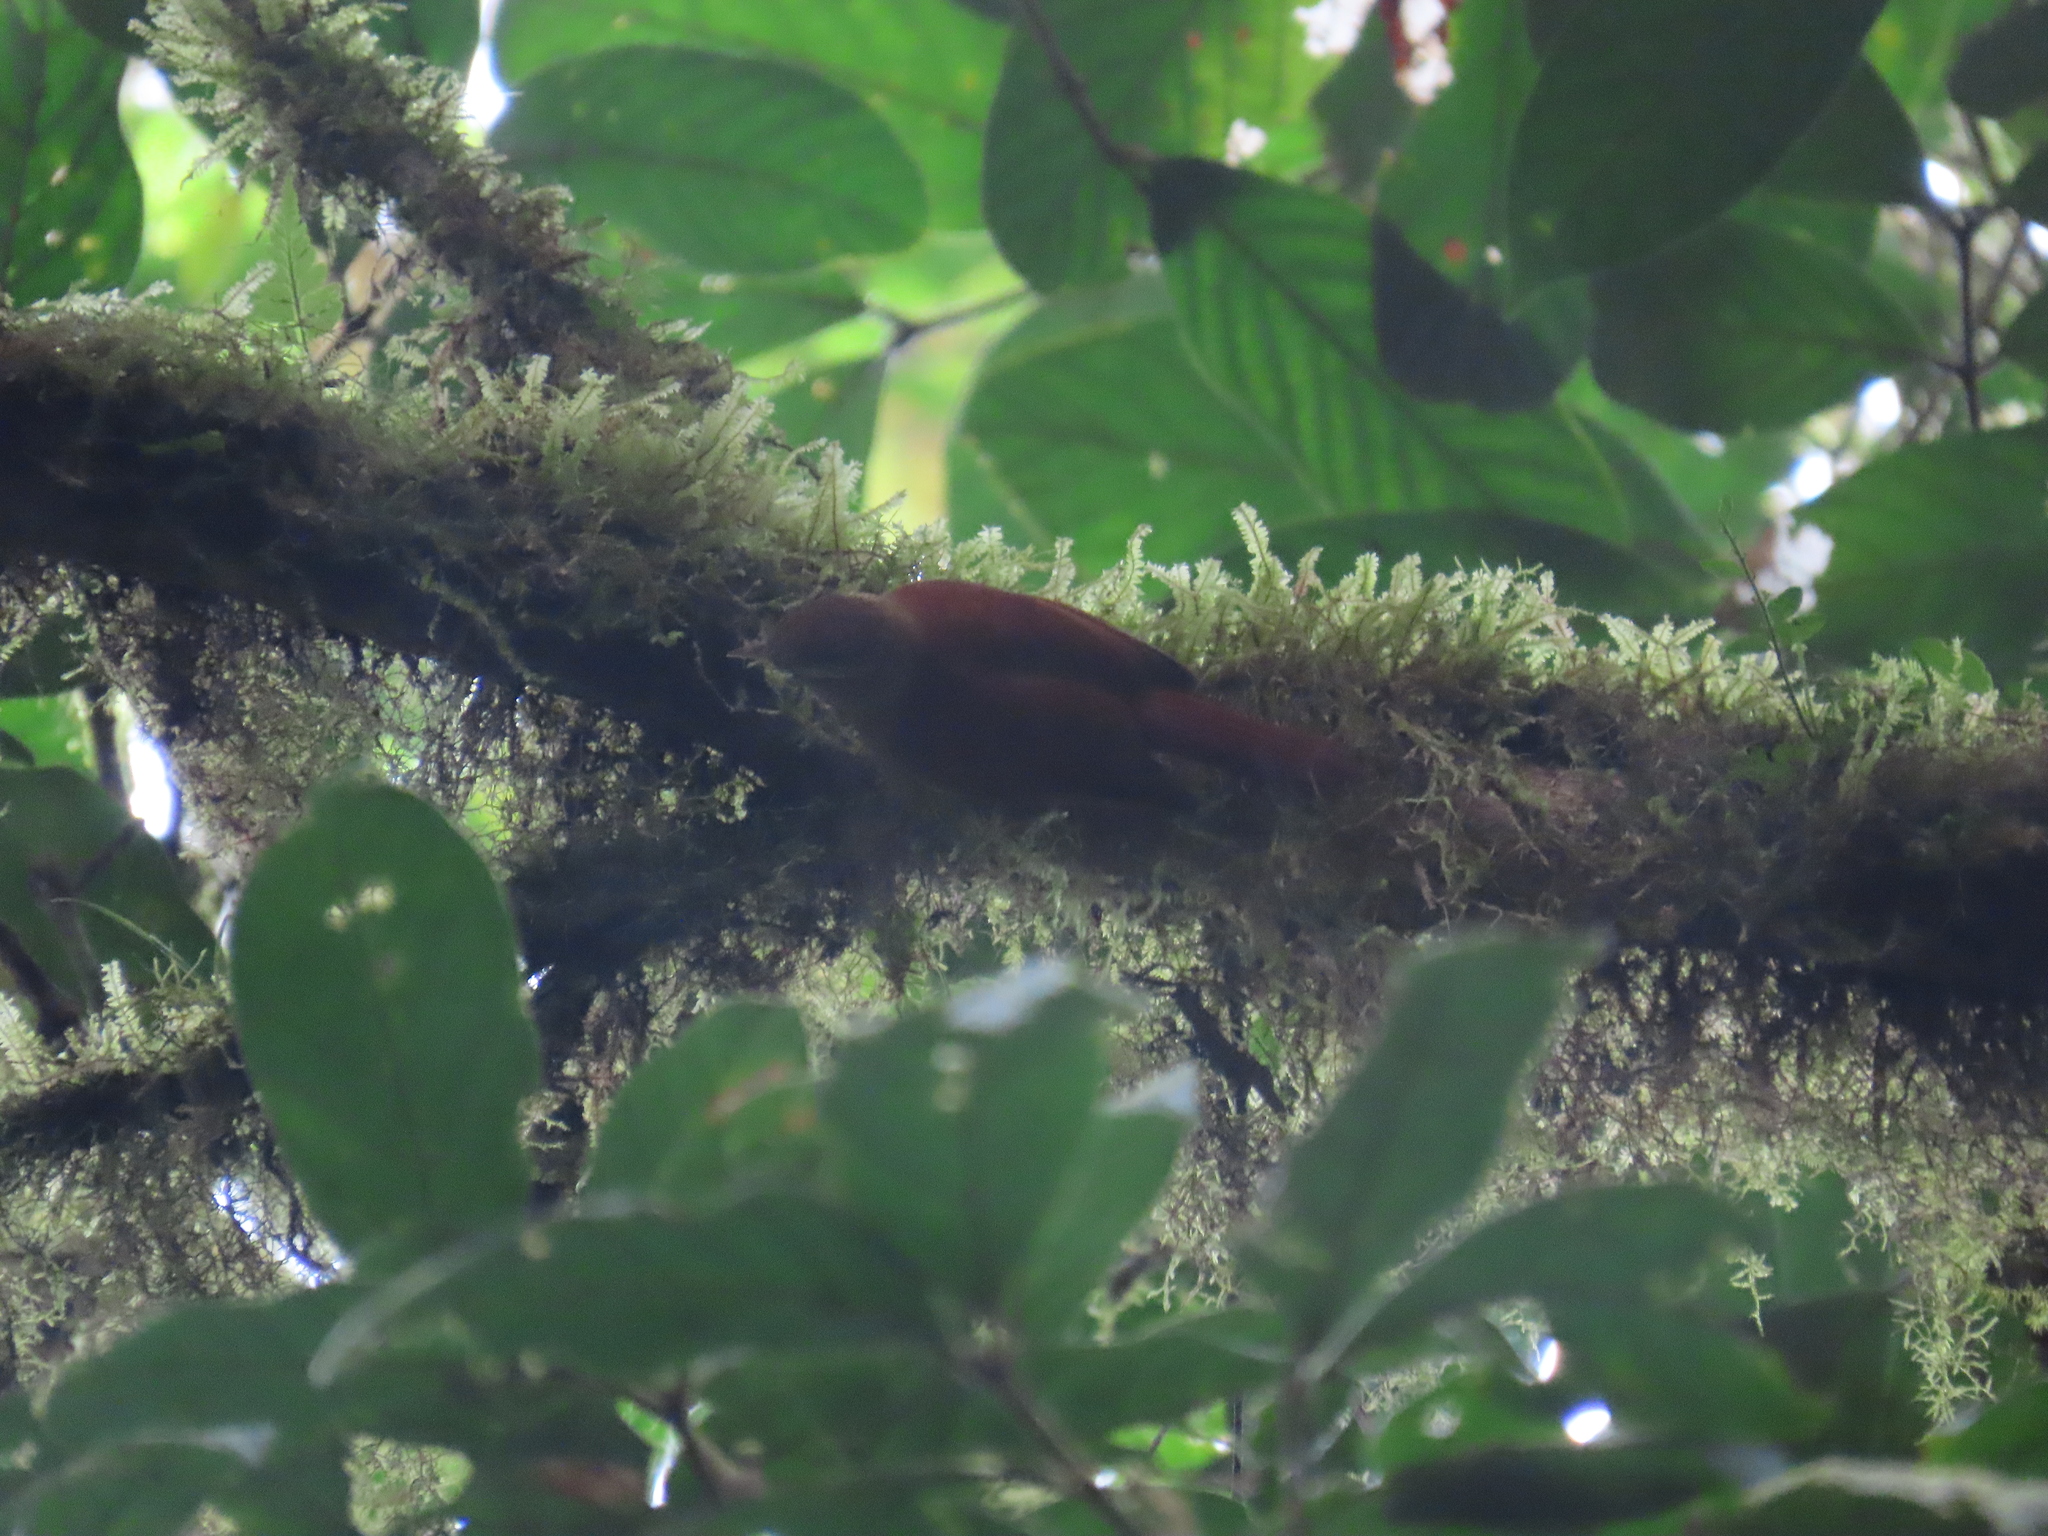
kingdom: Animalia
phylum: Chordata
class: Aves
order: Passeriformes
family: Furnariidae
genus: Margarornis
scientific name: Margarornis rubiginosus
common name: Ruddy treerunner
